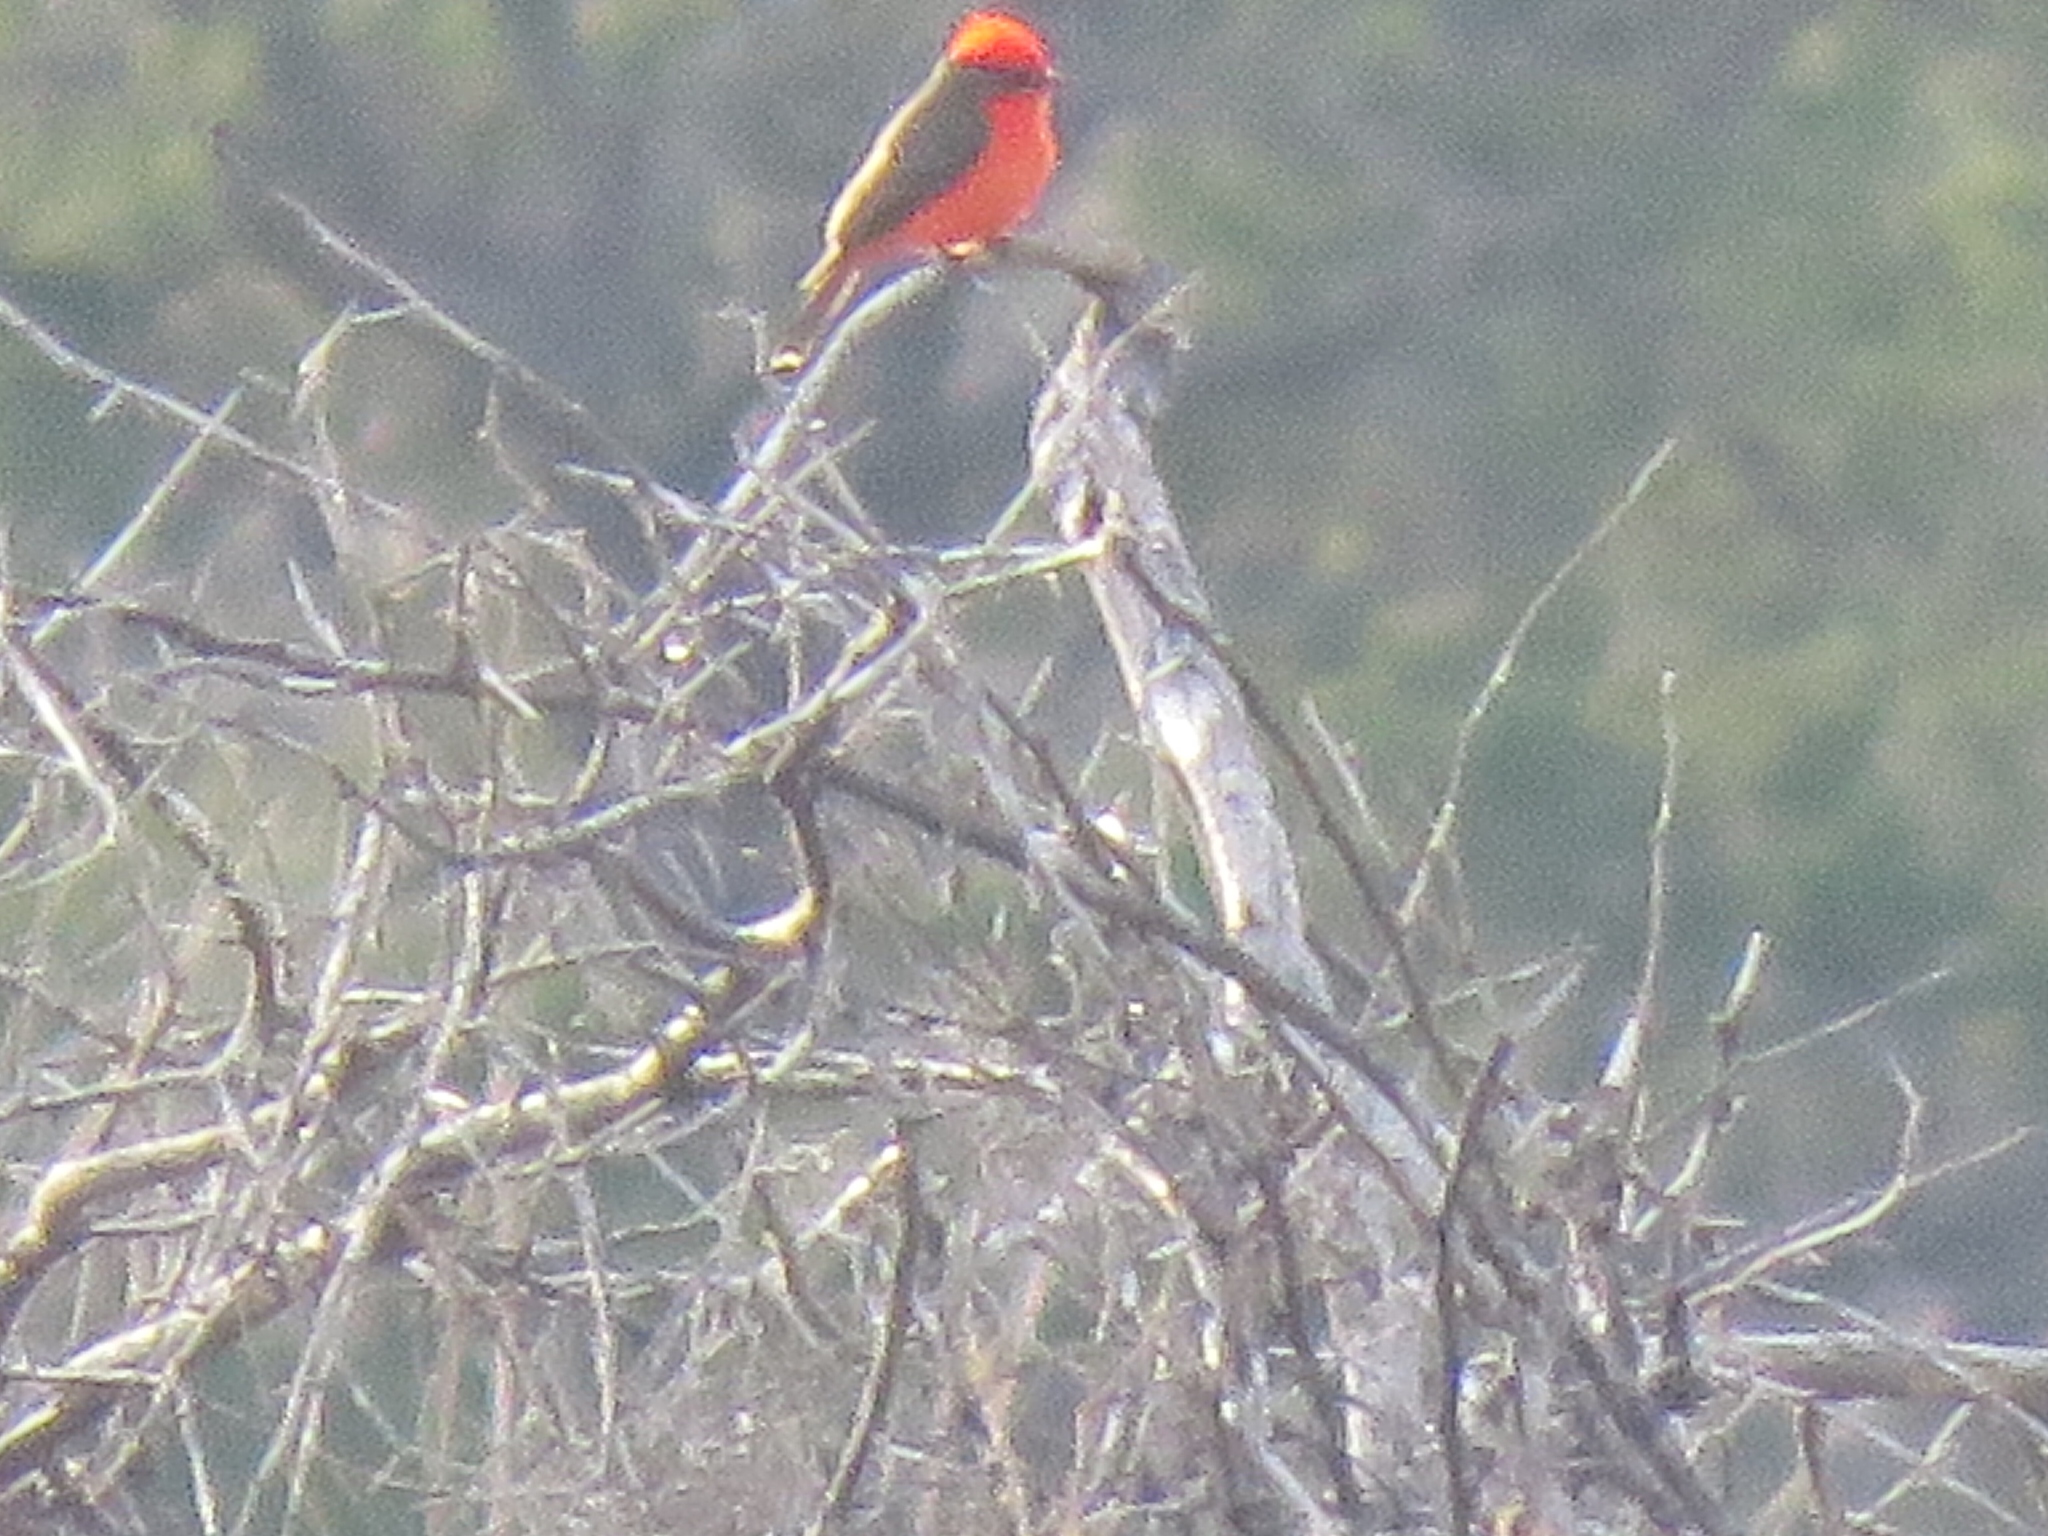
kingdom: Animalia
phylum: Chordata
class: Aves
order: Passeriformes
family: Tyrannidae
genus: Pyrocephalus
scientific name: Pyrocephalus rubinus
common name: Vermilion flycatcher
